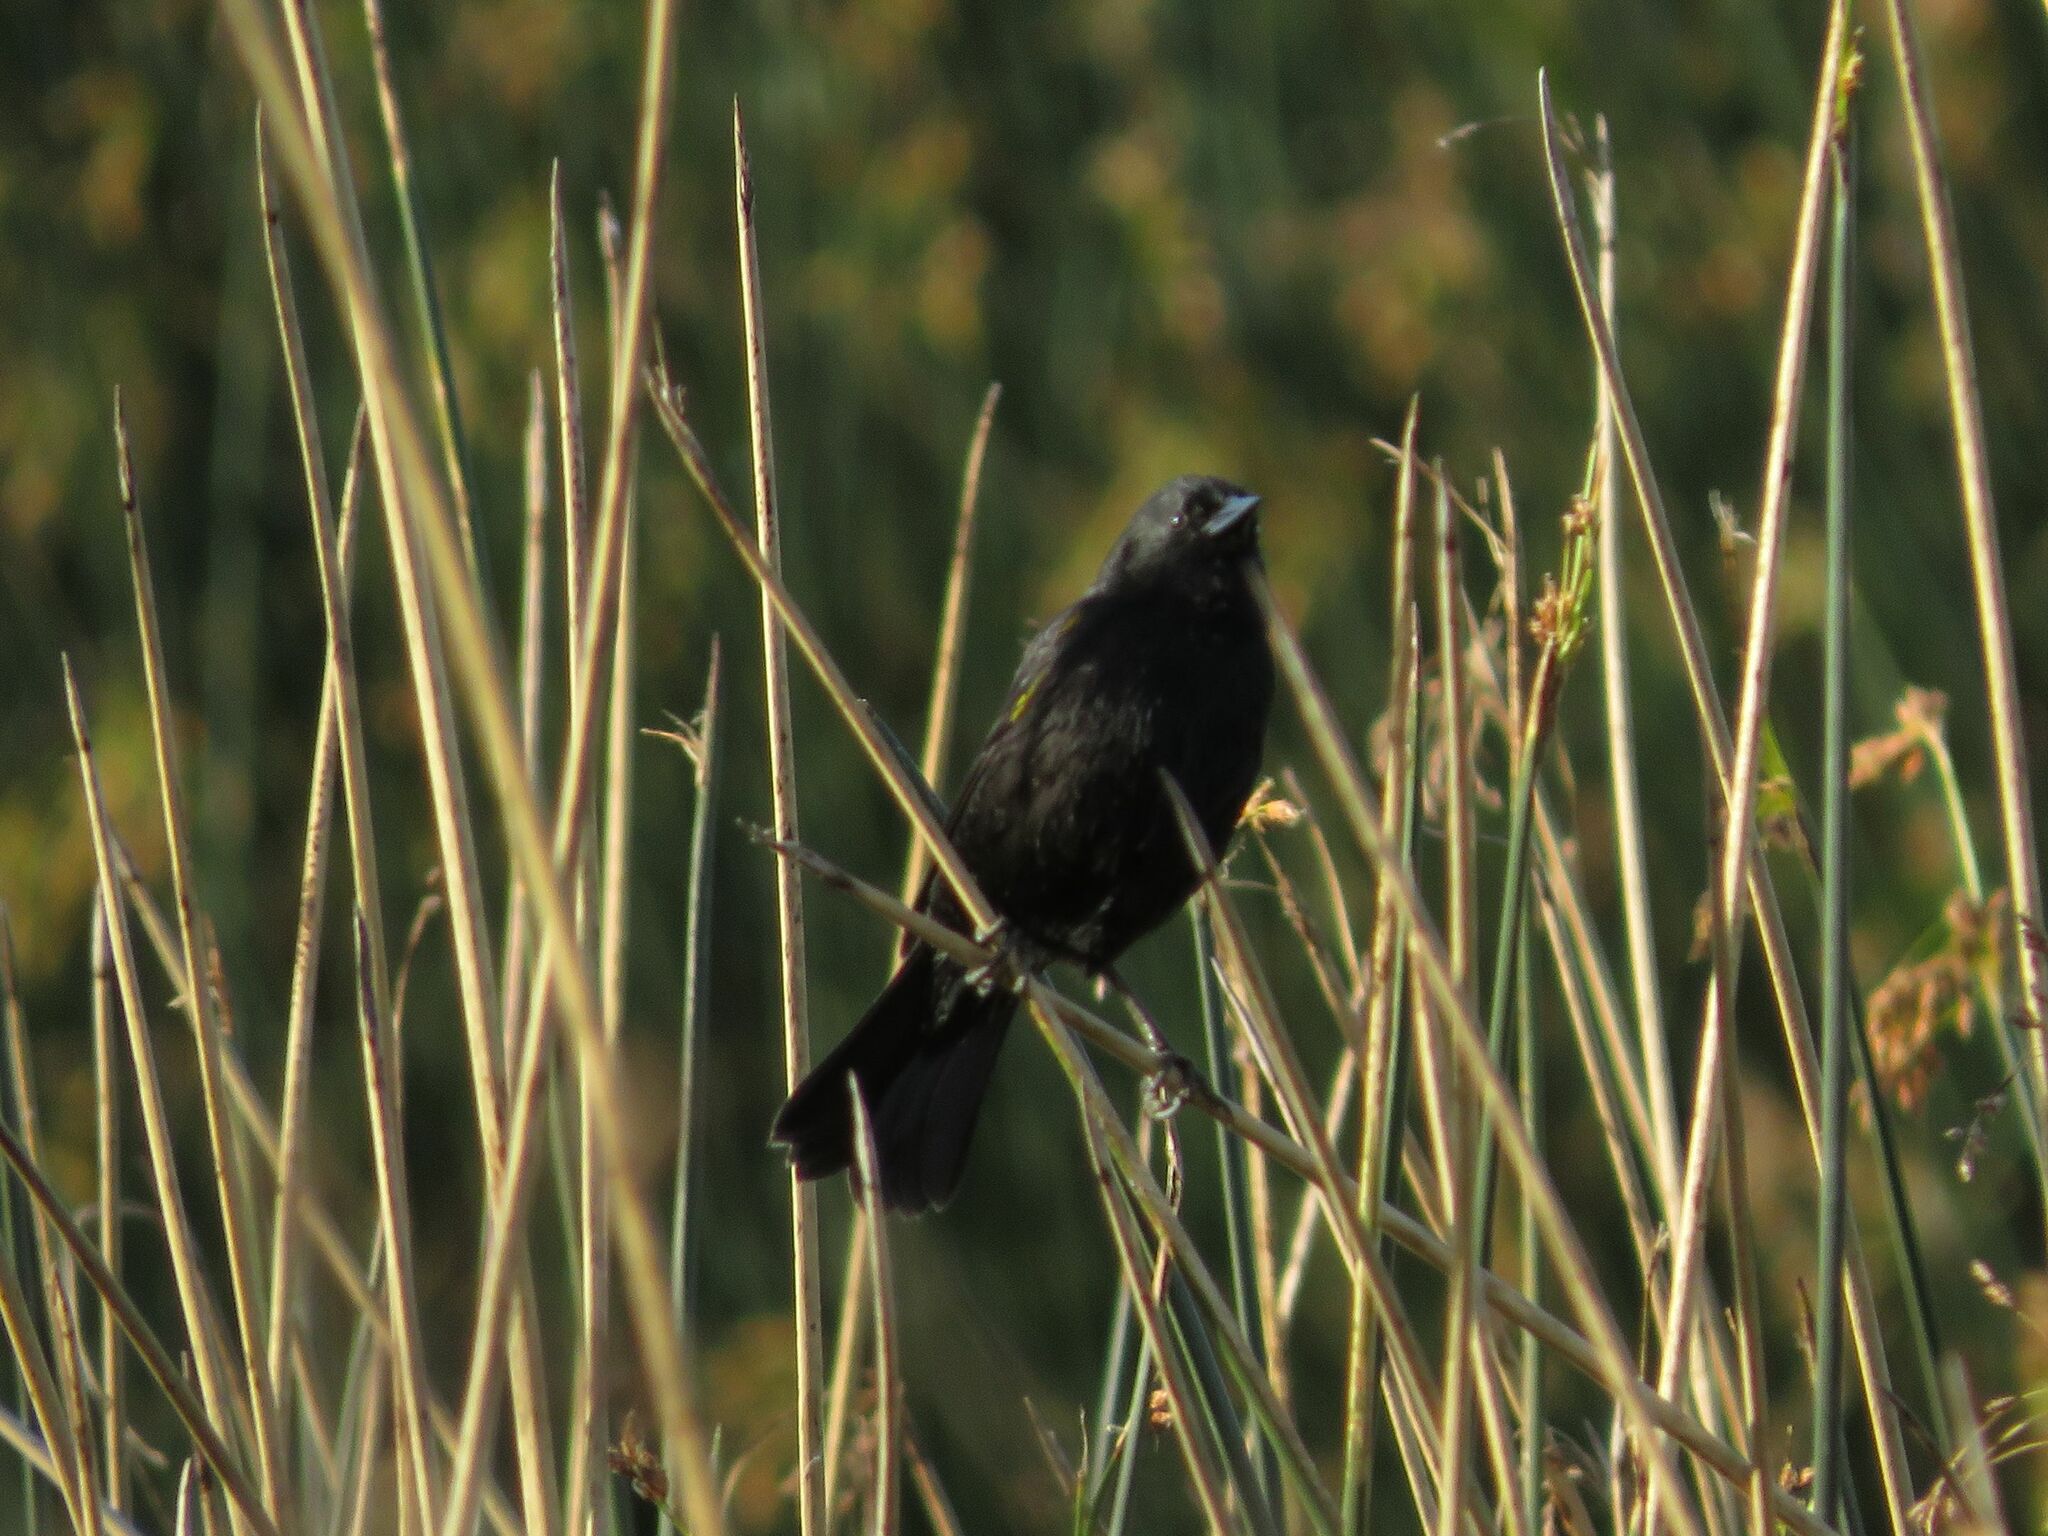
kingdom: Animalia
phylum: Chordata
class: Aves
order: Passeriformes
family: Icteridae
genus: Agelasticus
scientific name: Agelasticus thilius
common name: Yellow-winged blackbird
